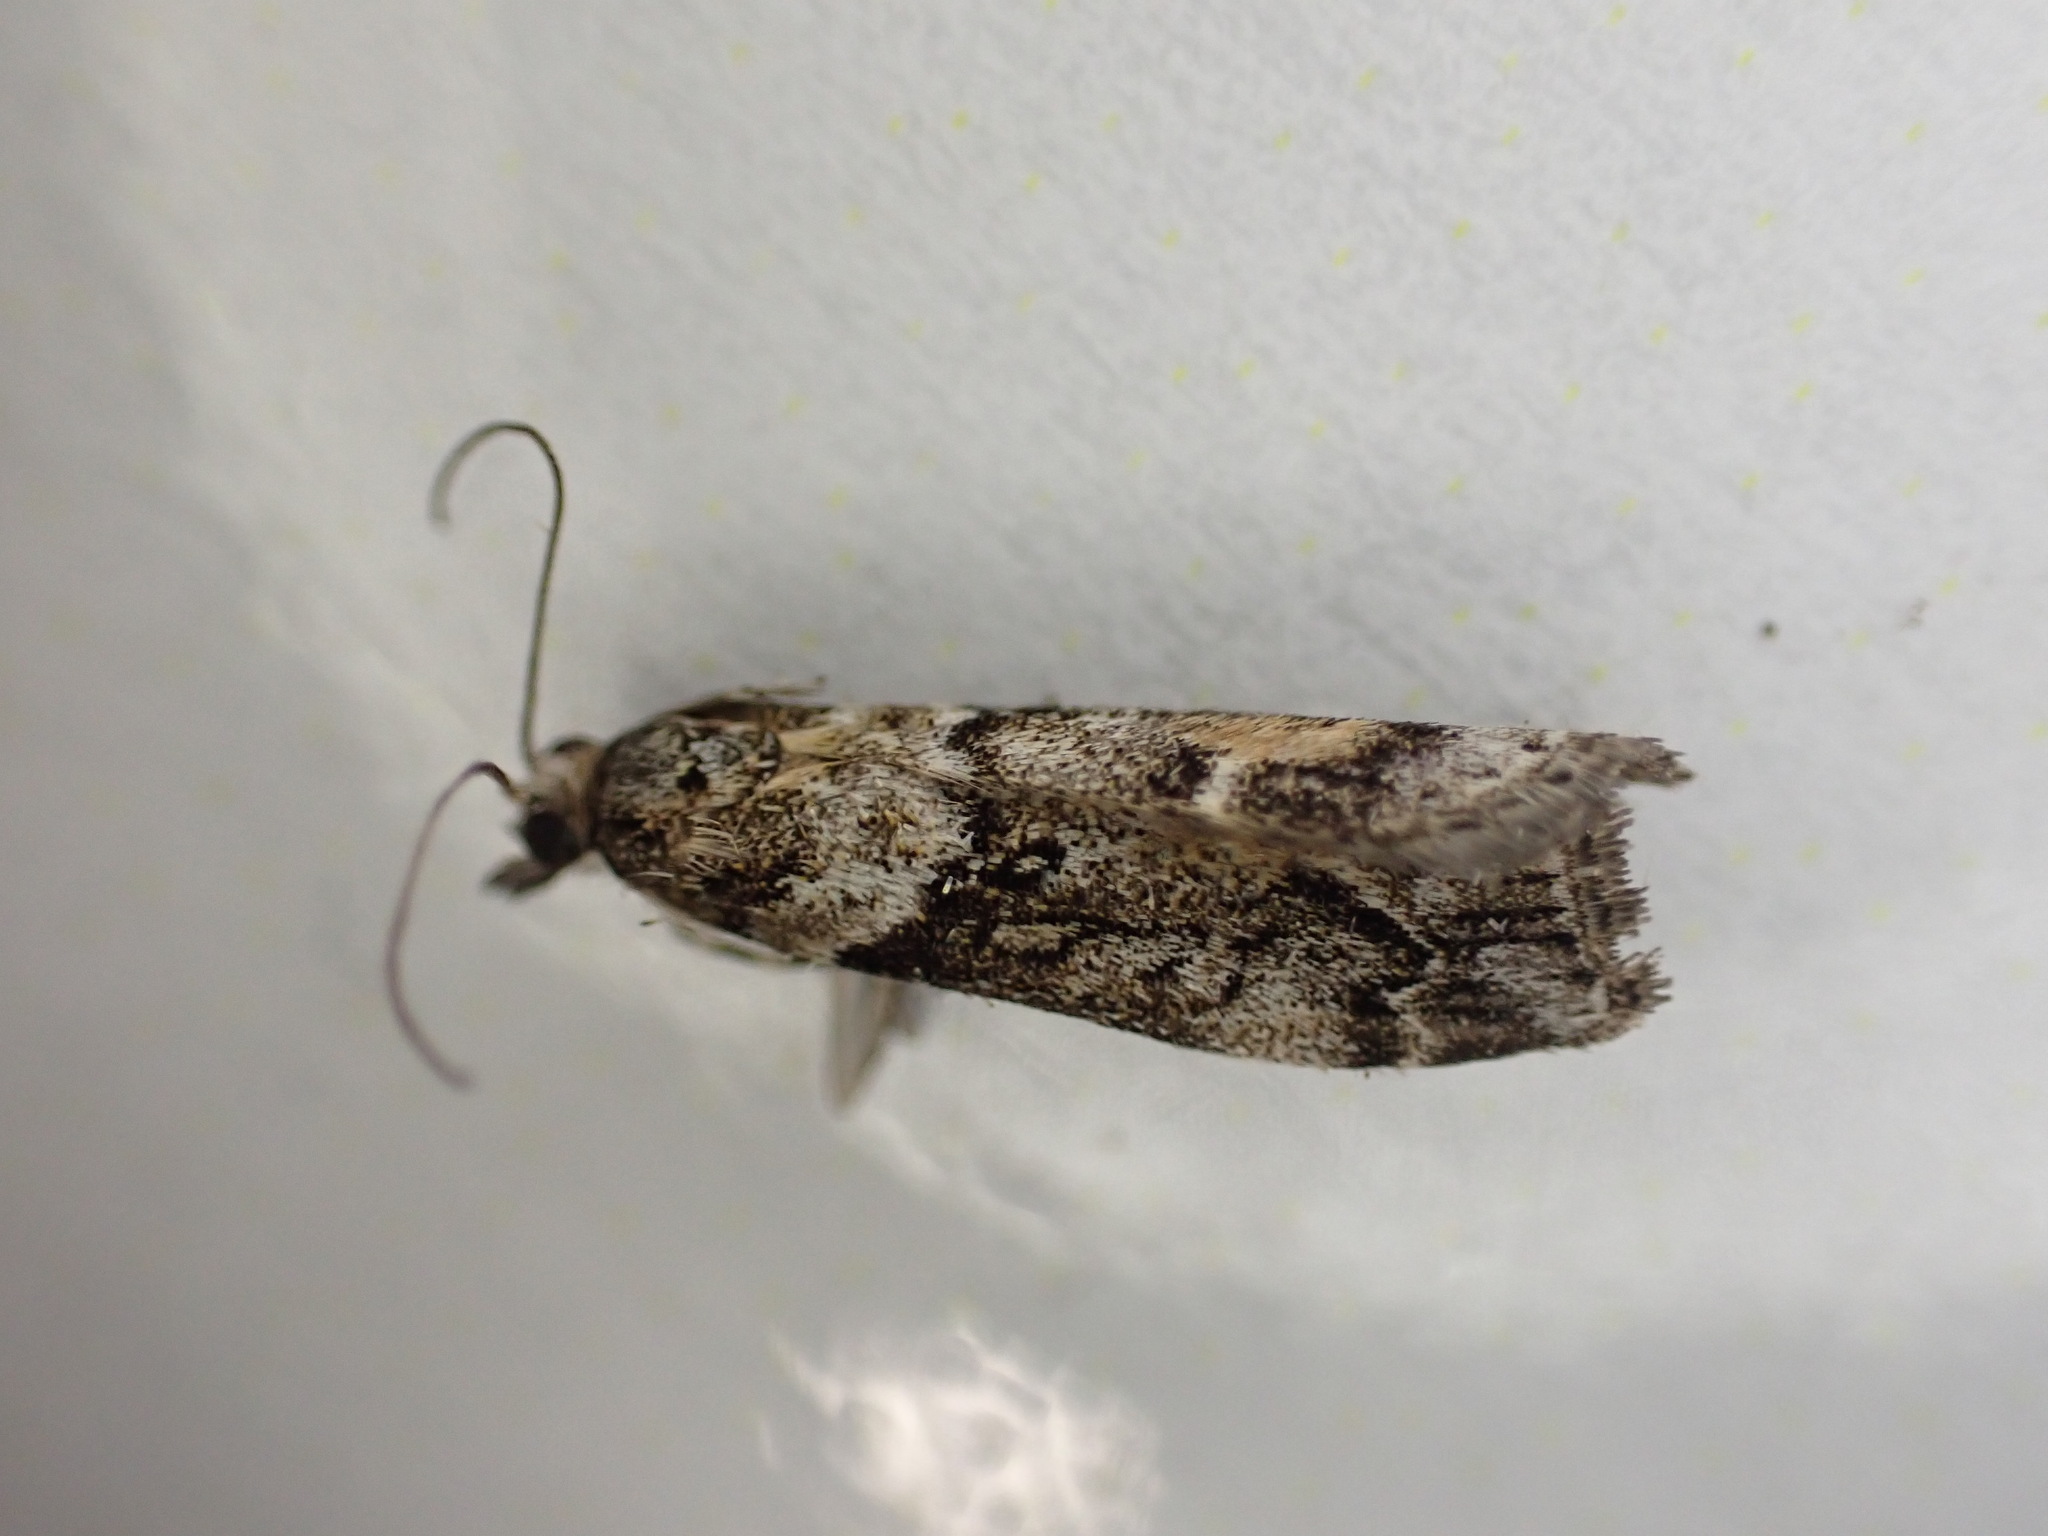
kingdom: Animalia
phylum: Arthropoda
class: Insecta
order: Lepidoptera
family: Crambidae
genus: Eudonia
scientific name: Eudonia submarginalis
